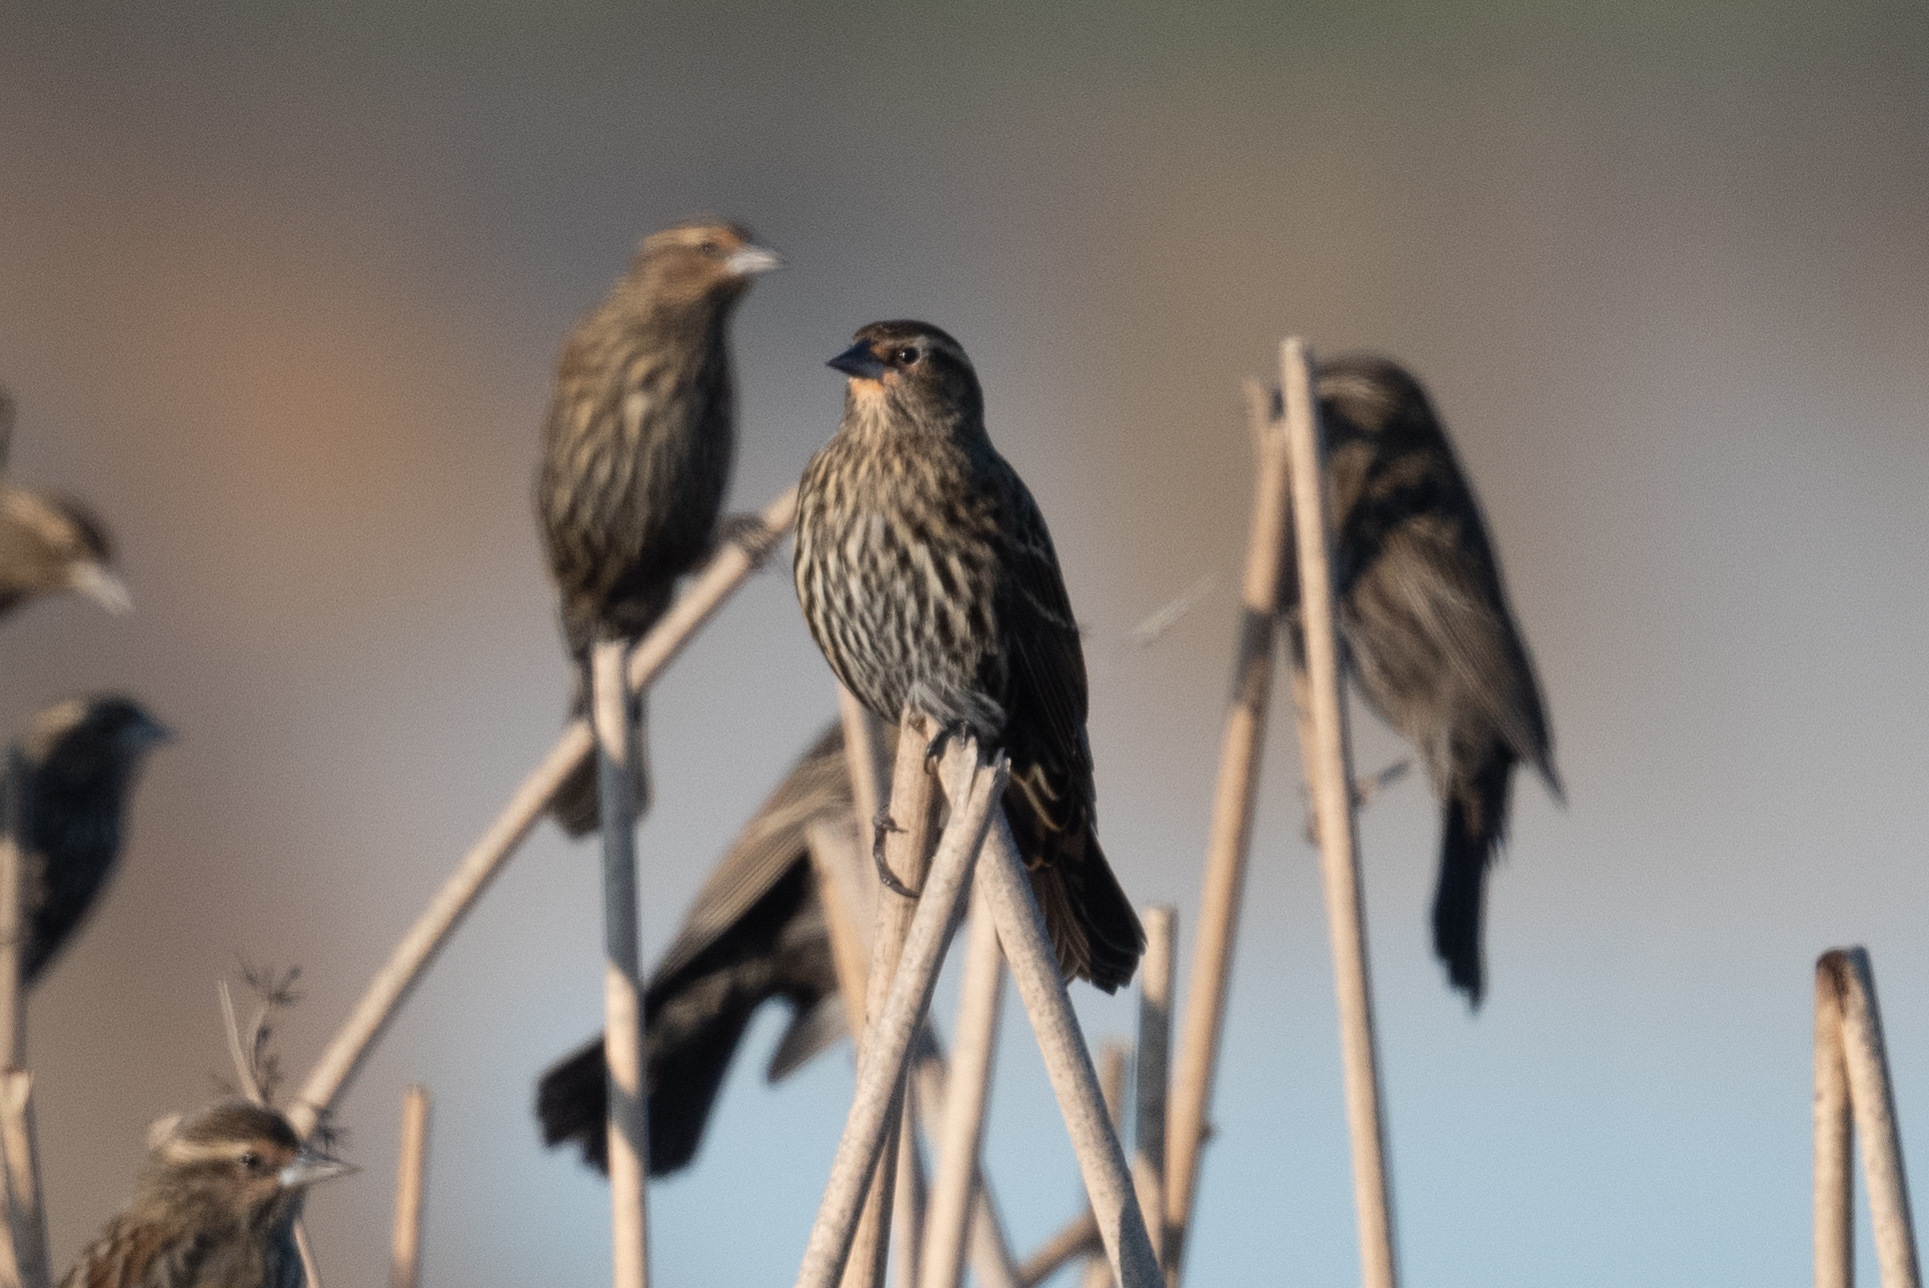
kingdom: Animalia
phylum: Chordata
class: Aves
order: Passeriformes
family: Icteridae
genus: Agelaius
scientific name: Agelaius phoeniceus
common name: Red-winged blackbird
